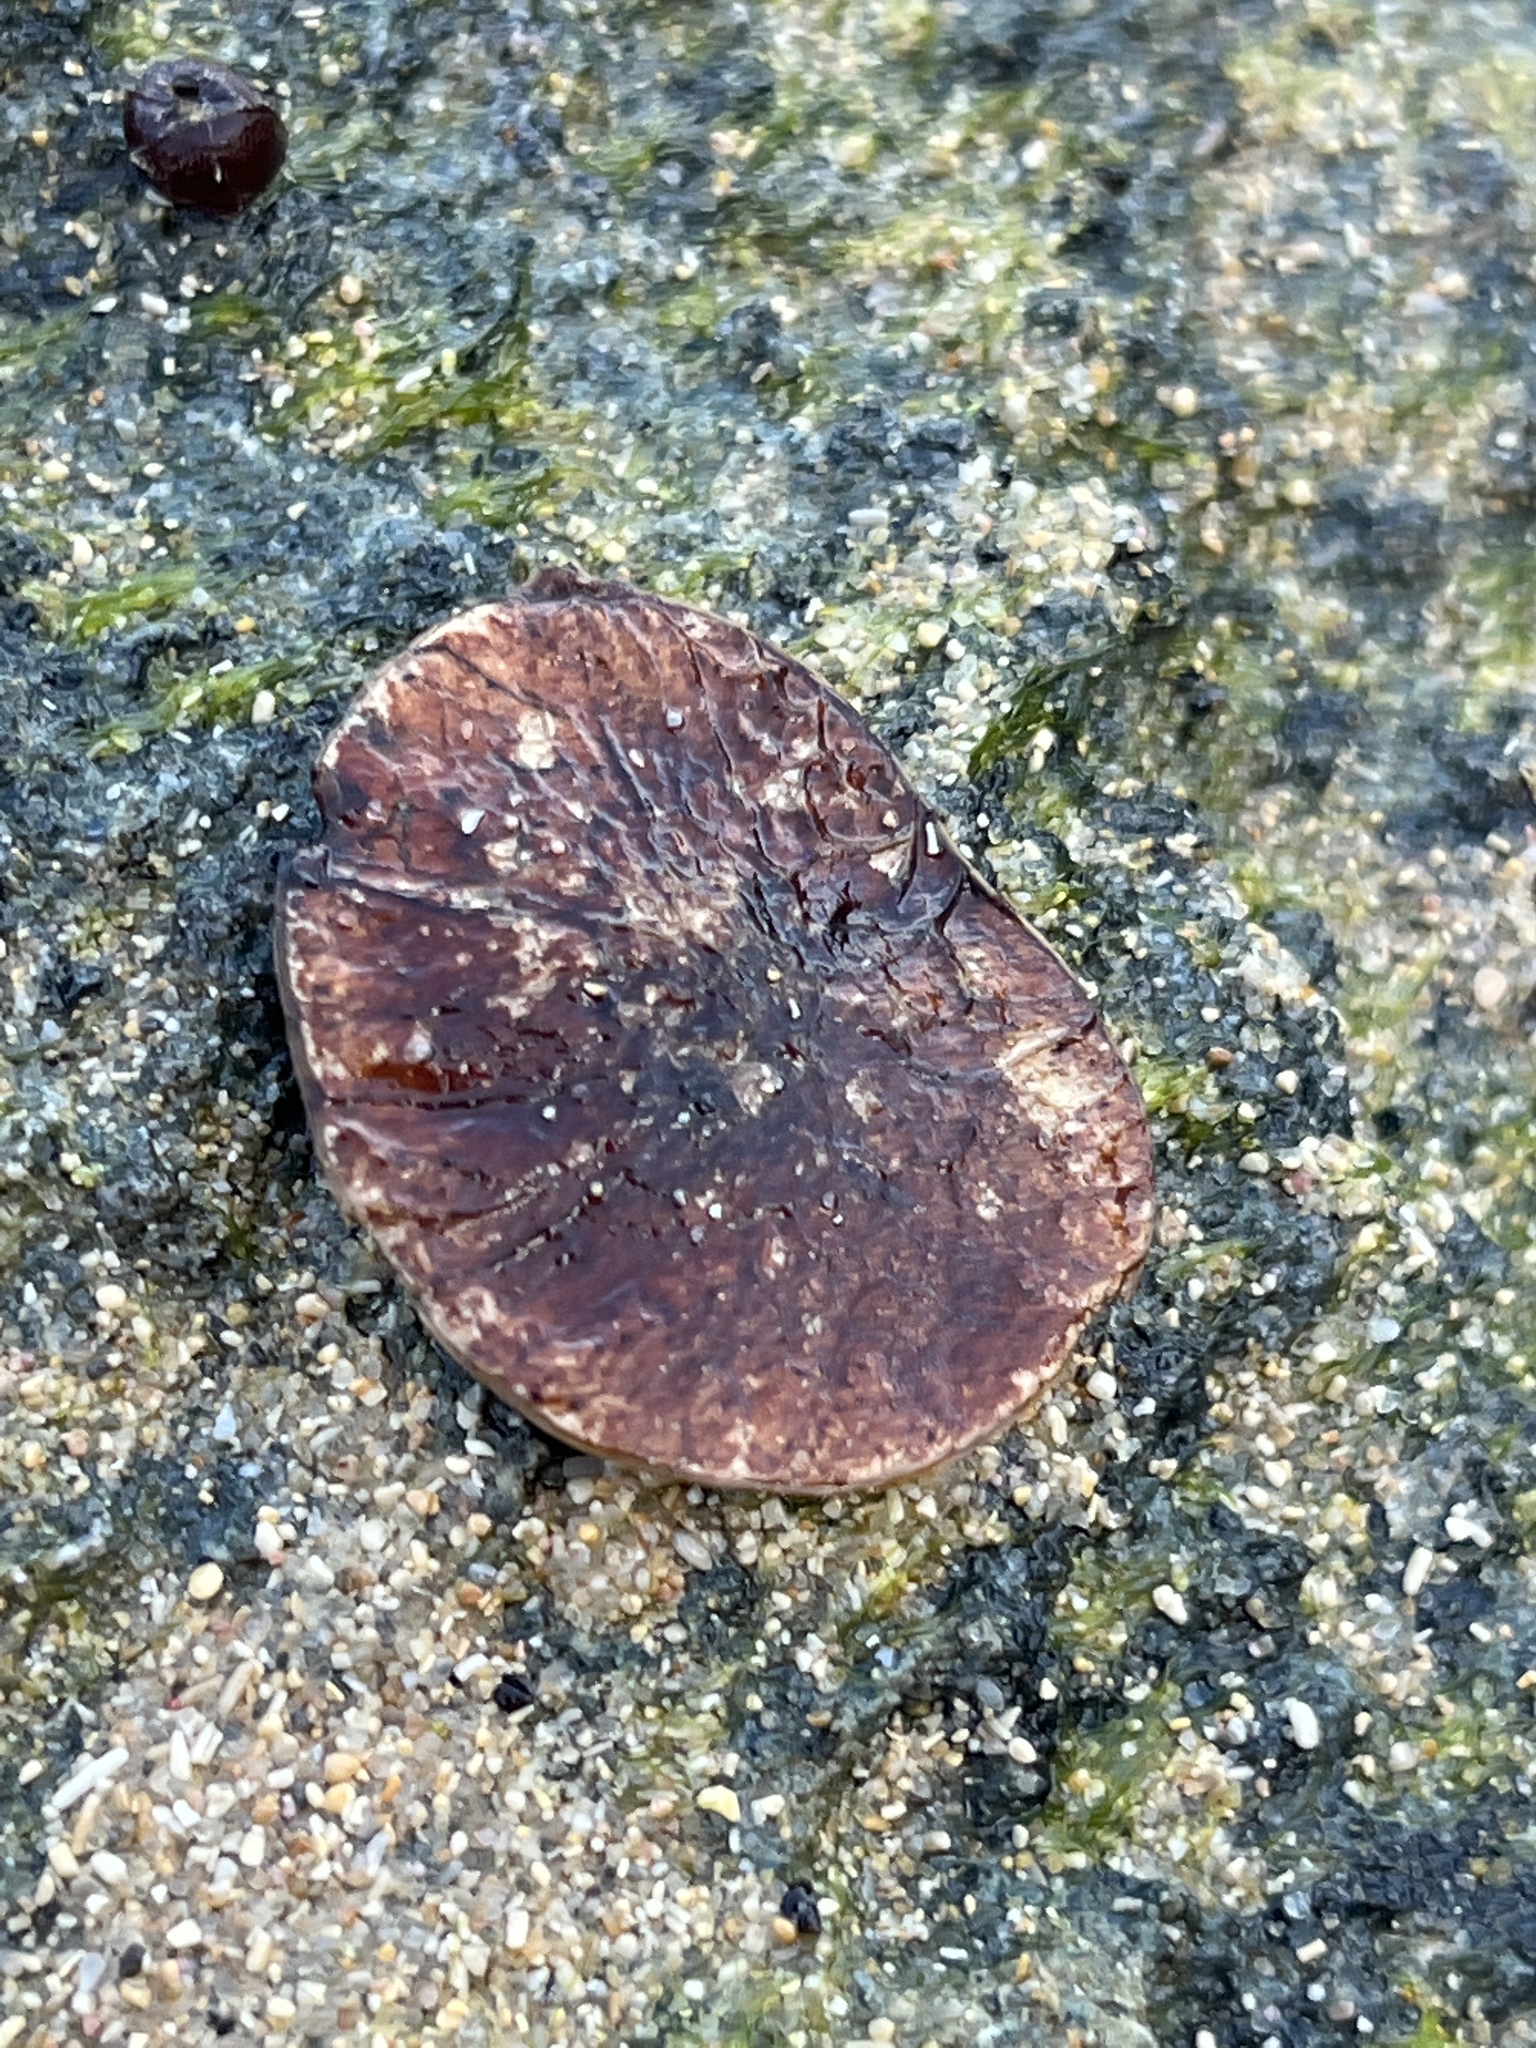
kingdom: Plantae
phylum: Tracheophyta
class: Magnoliopsida
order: Fabales
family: Fabaceae
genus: Dalbergia
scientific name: Dalbergia ecastaphyllum
